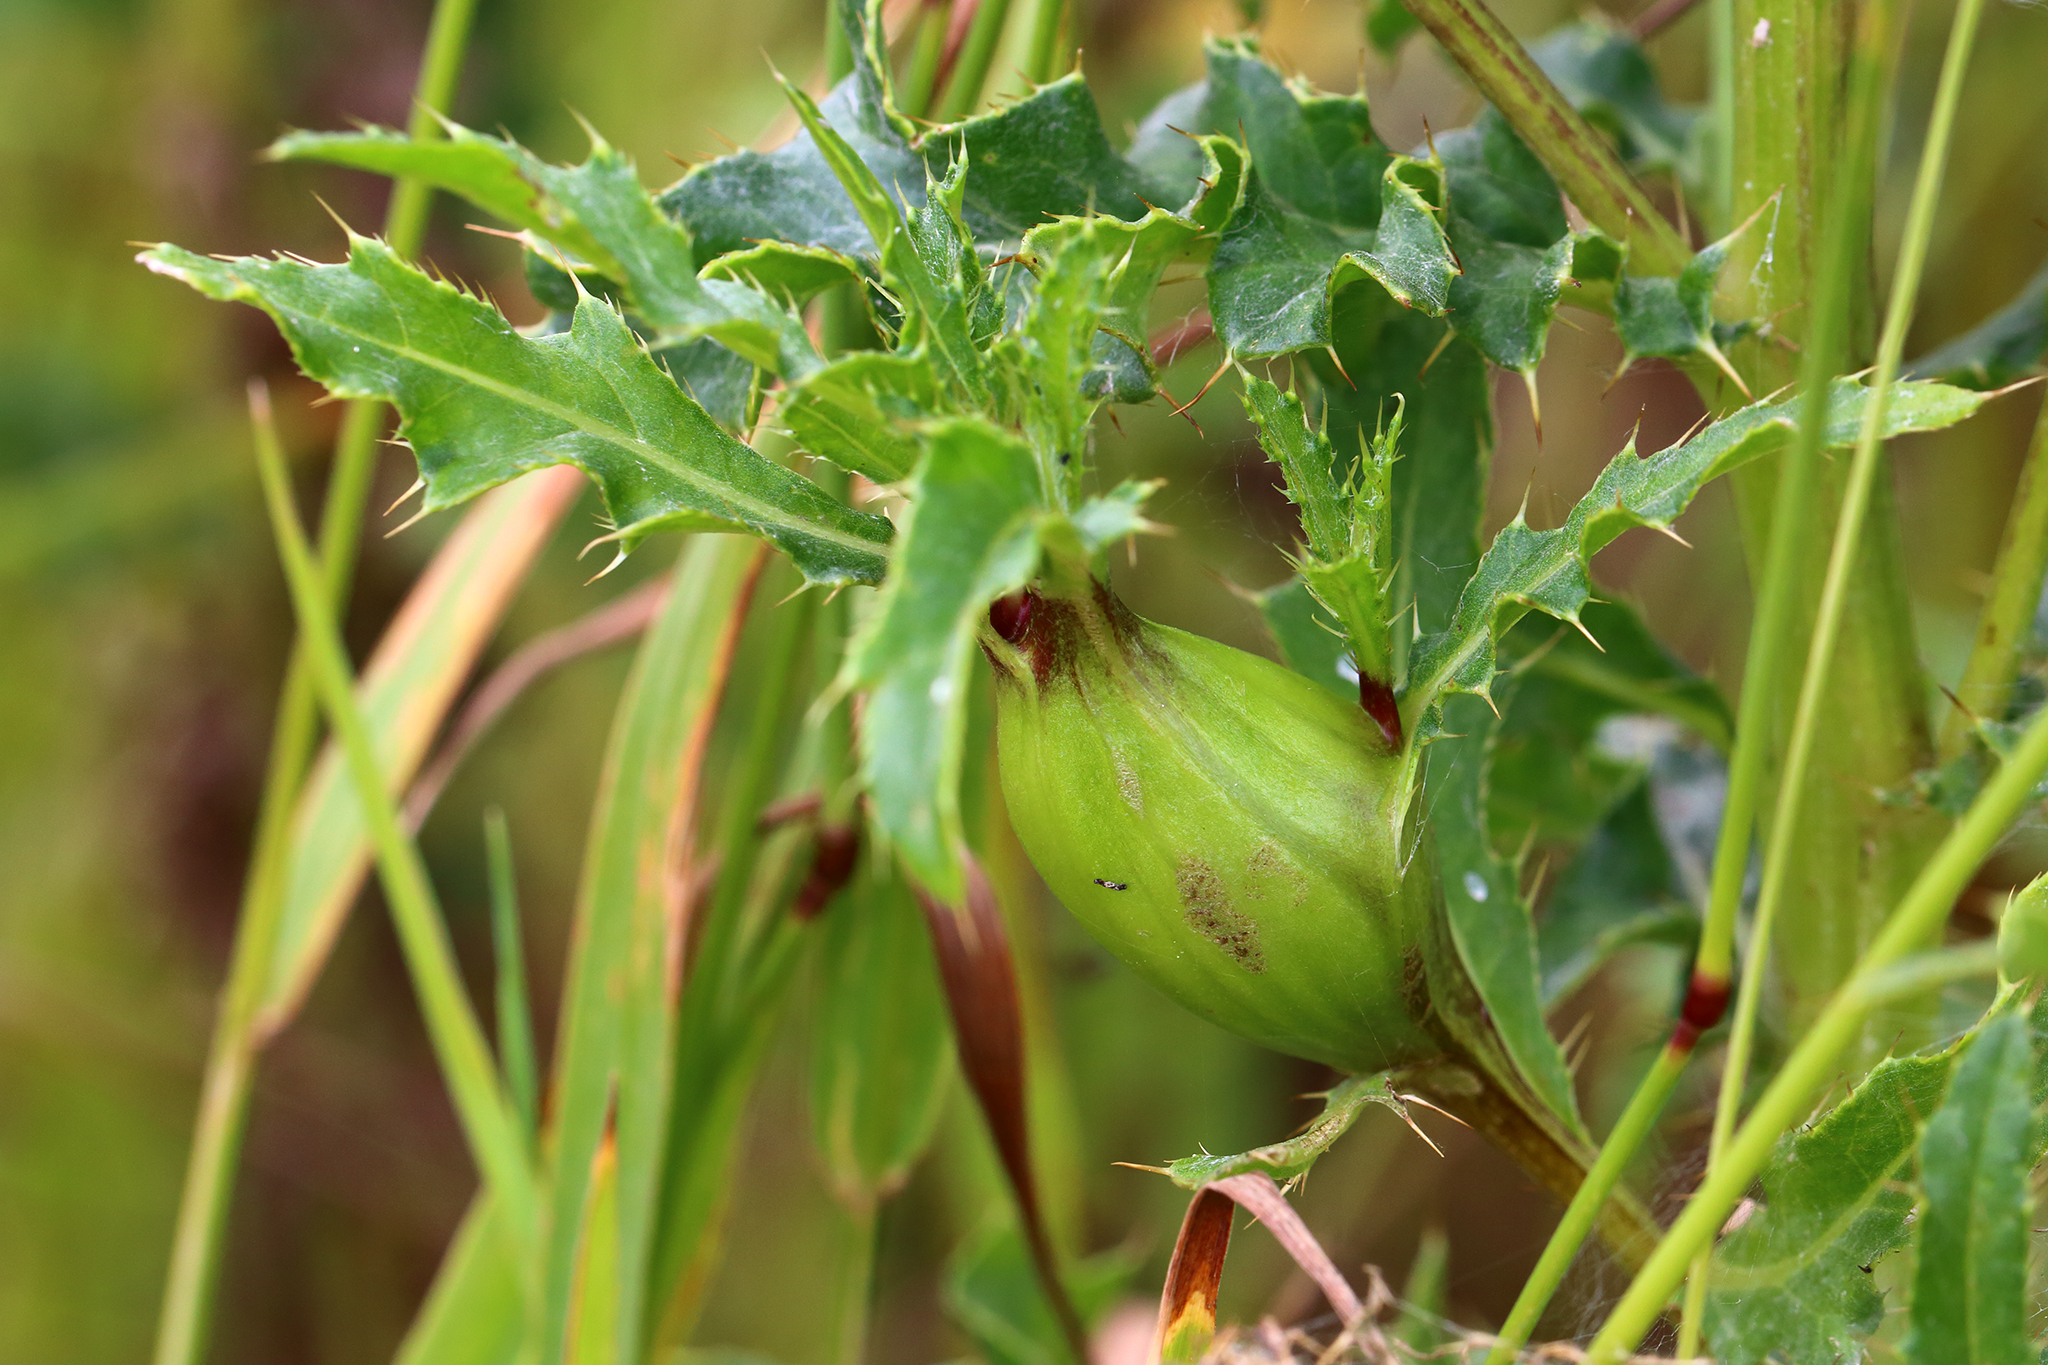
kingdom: Animalia
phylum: Arthropoda
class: Insecta
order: Diptera
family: Tephritidae
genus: Urophora
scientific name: Urophora cardui
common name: Fruit fly
